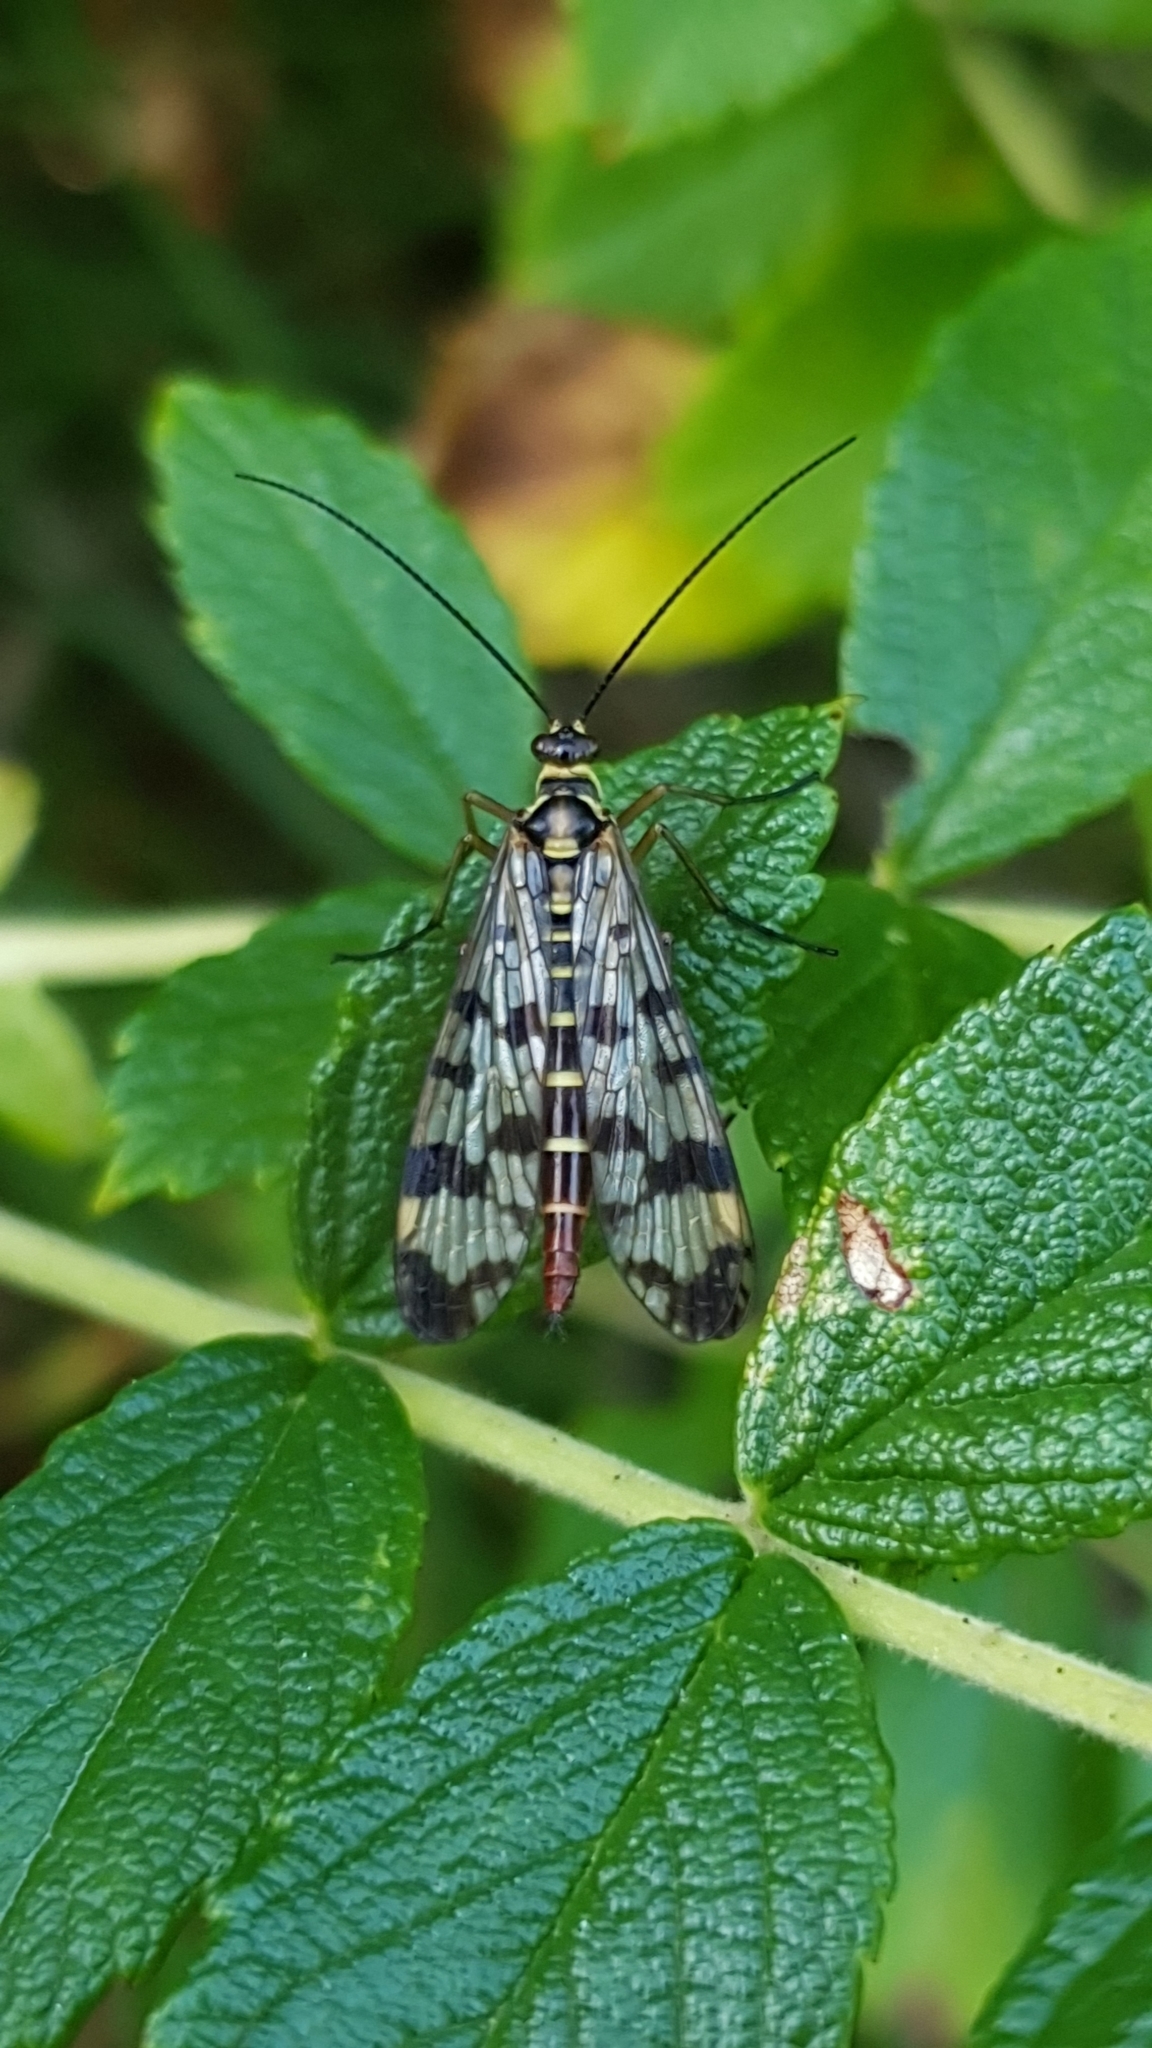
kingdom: Animalia
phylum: Arthropoda
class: Insecta
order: Mecoptera
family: Panorpidae
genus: Panorpa
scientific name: Panorpa communis
